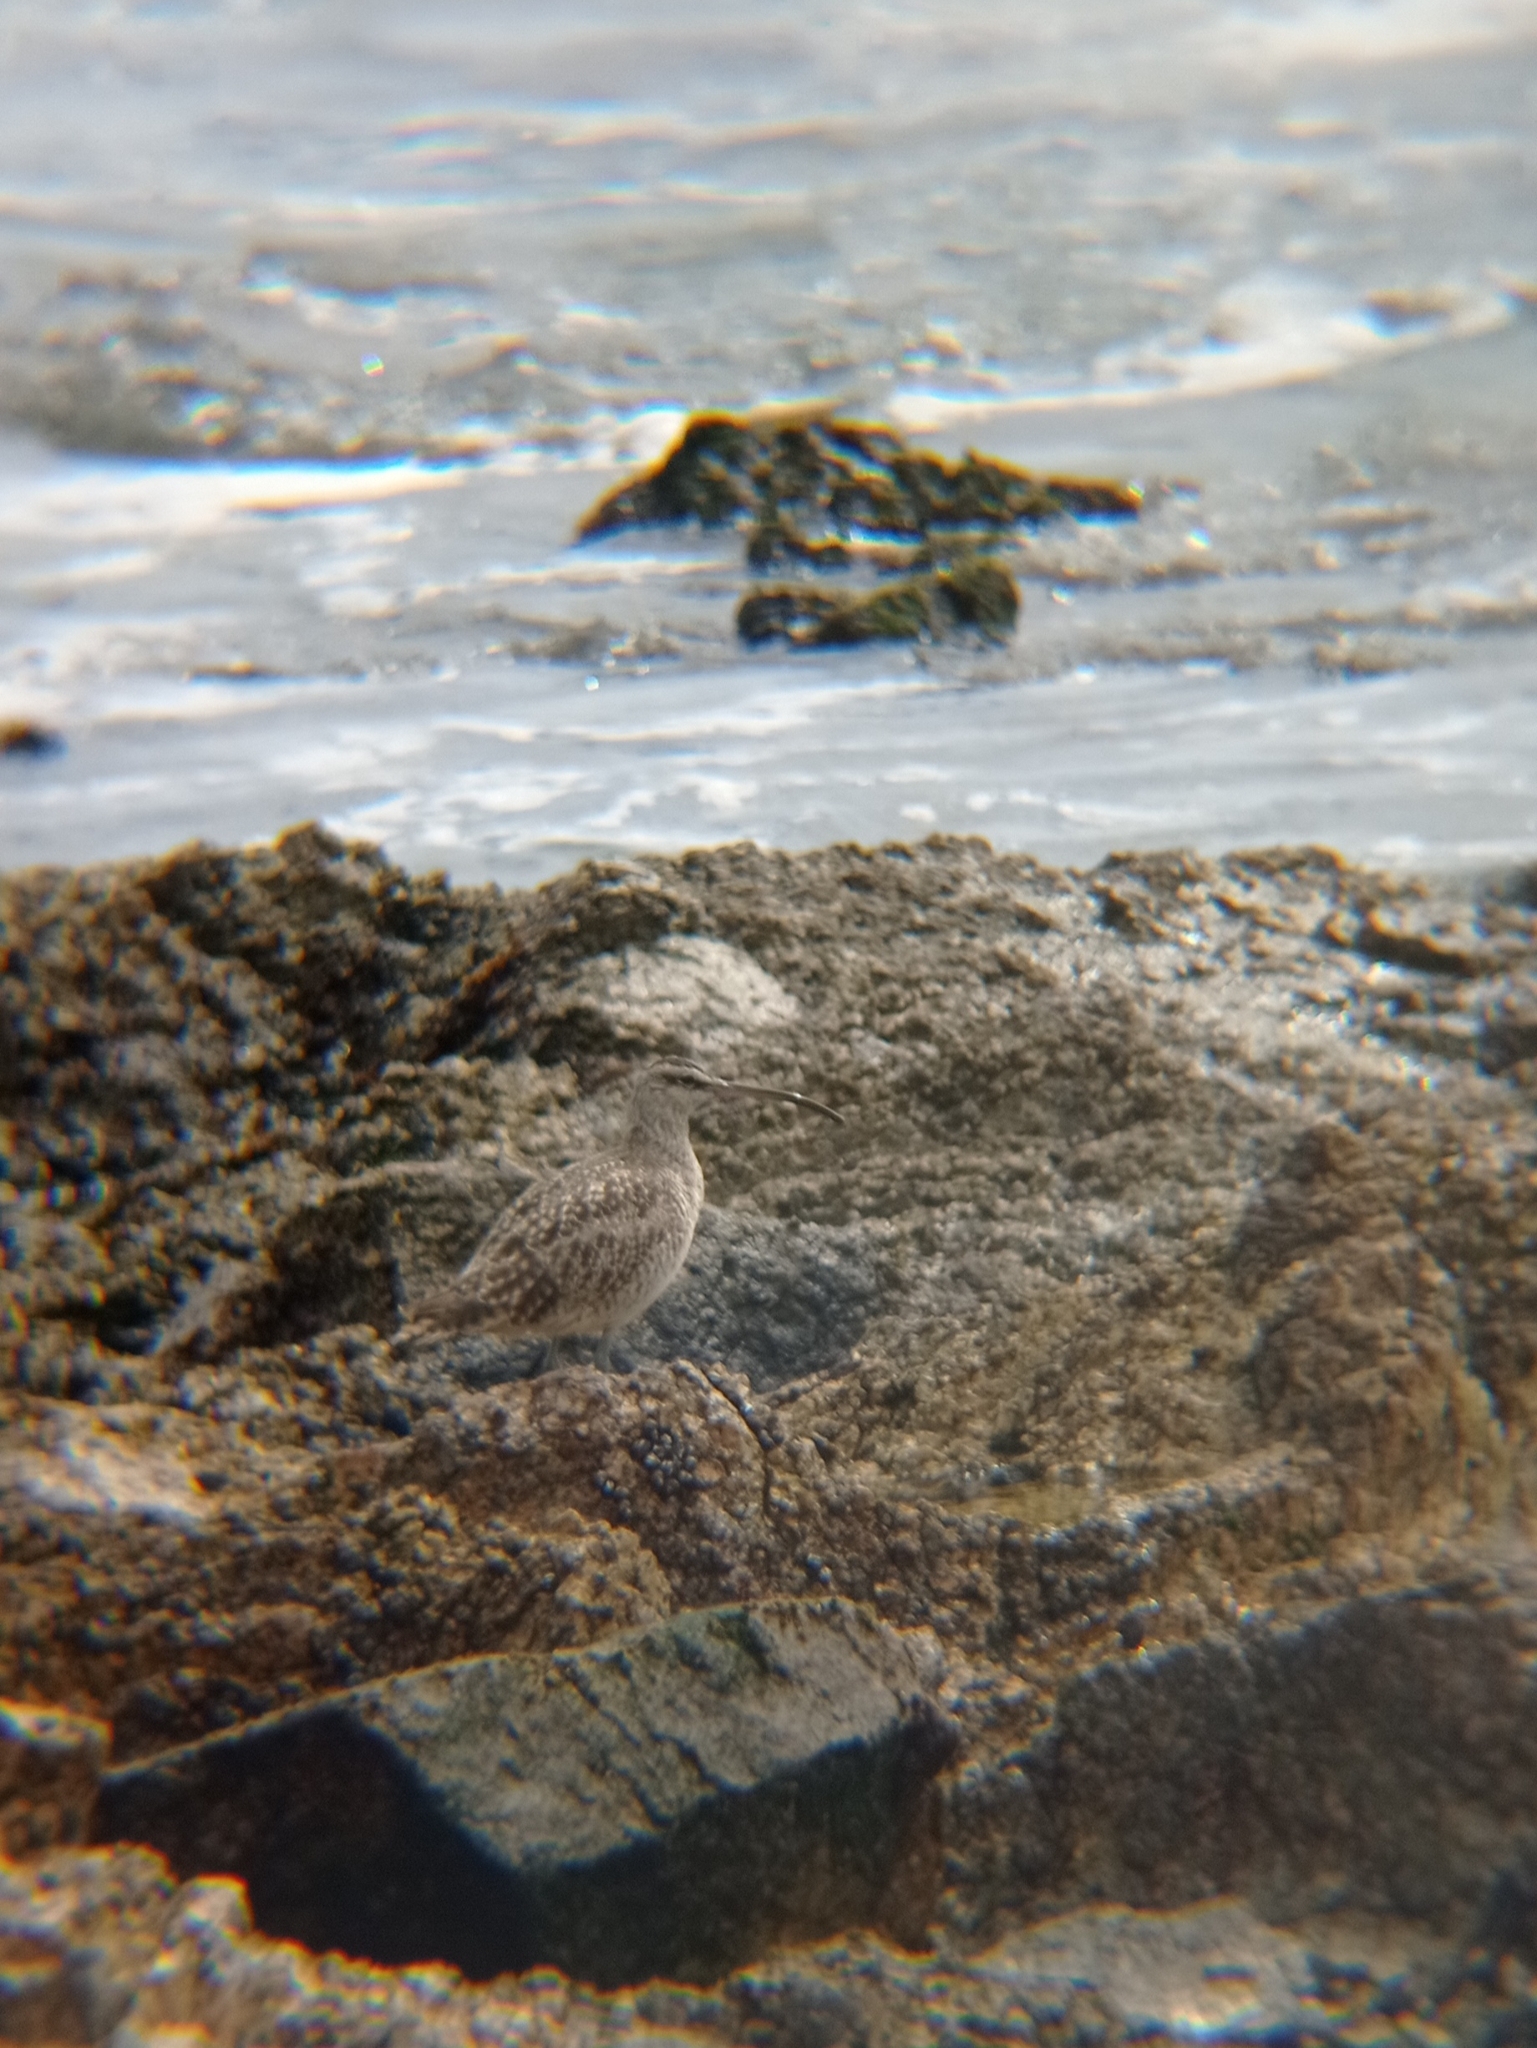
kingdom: Animalia
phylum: Chordata
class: Aves
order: Charadriiformes
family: Scolopacidae
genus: Numenius
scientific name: Numenius phaeopus
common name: Whimbrel
